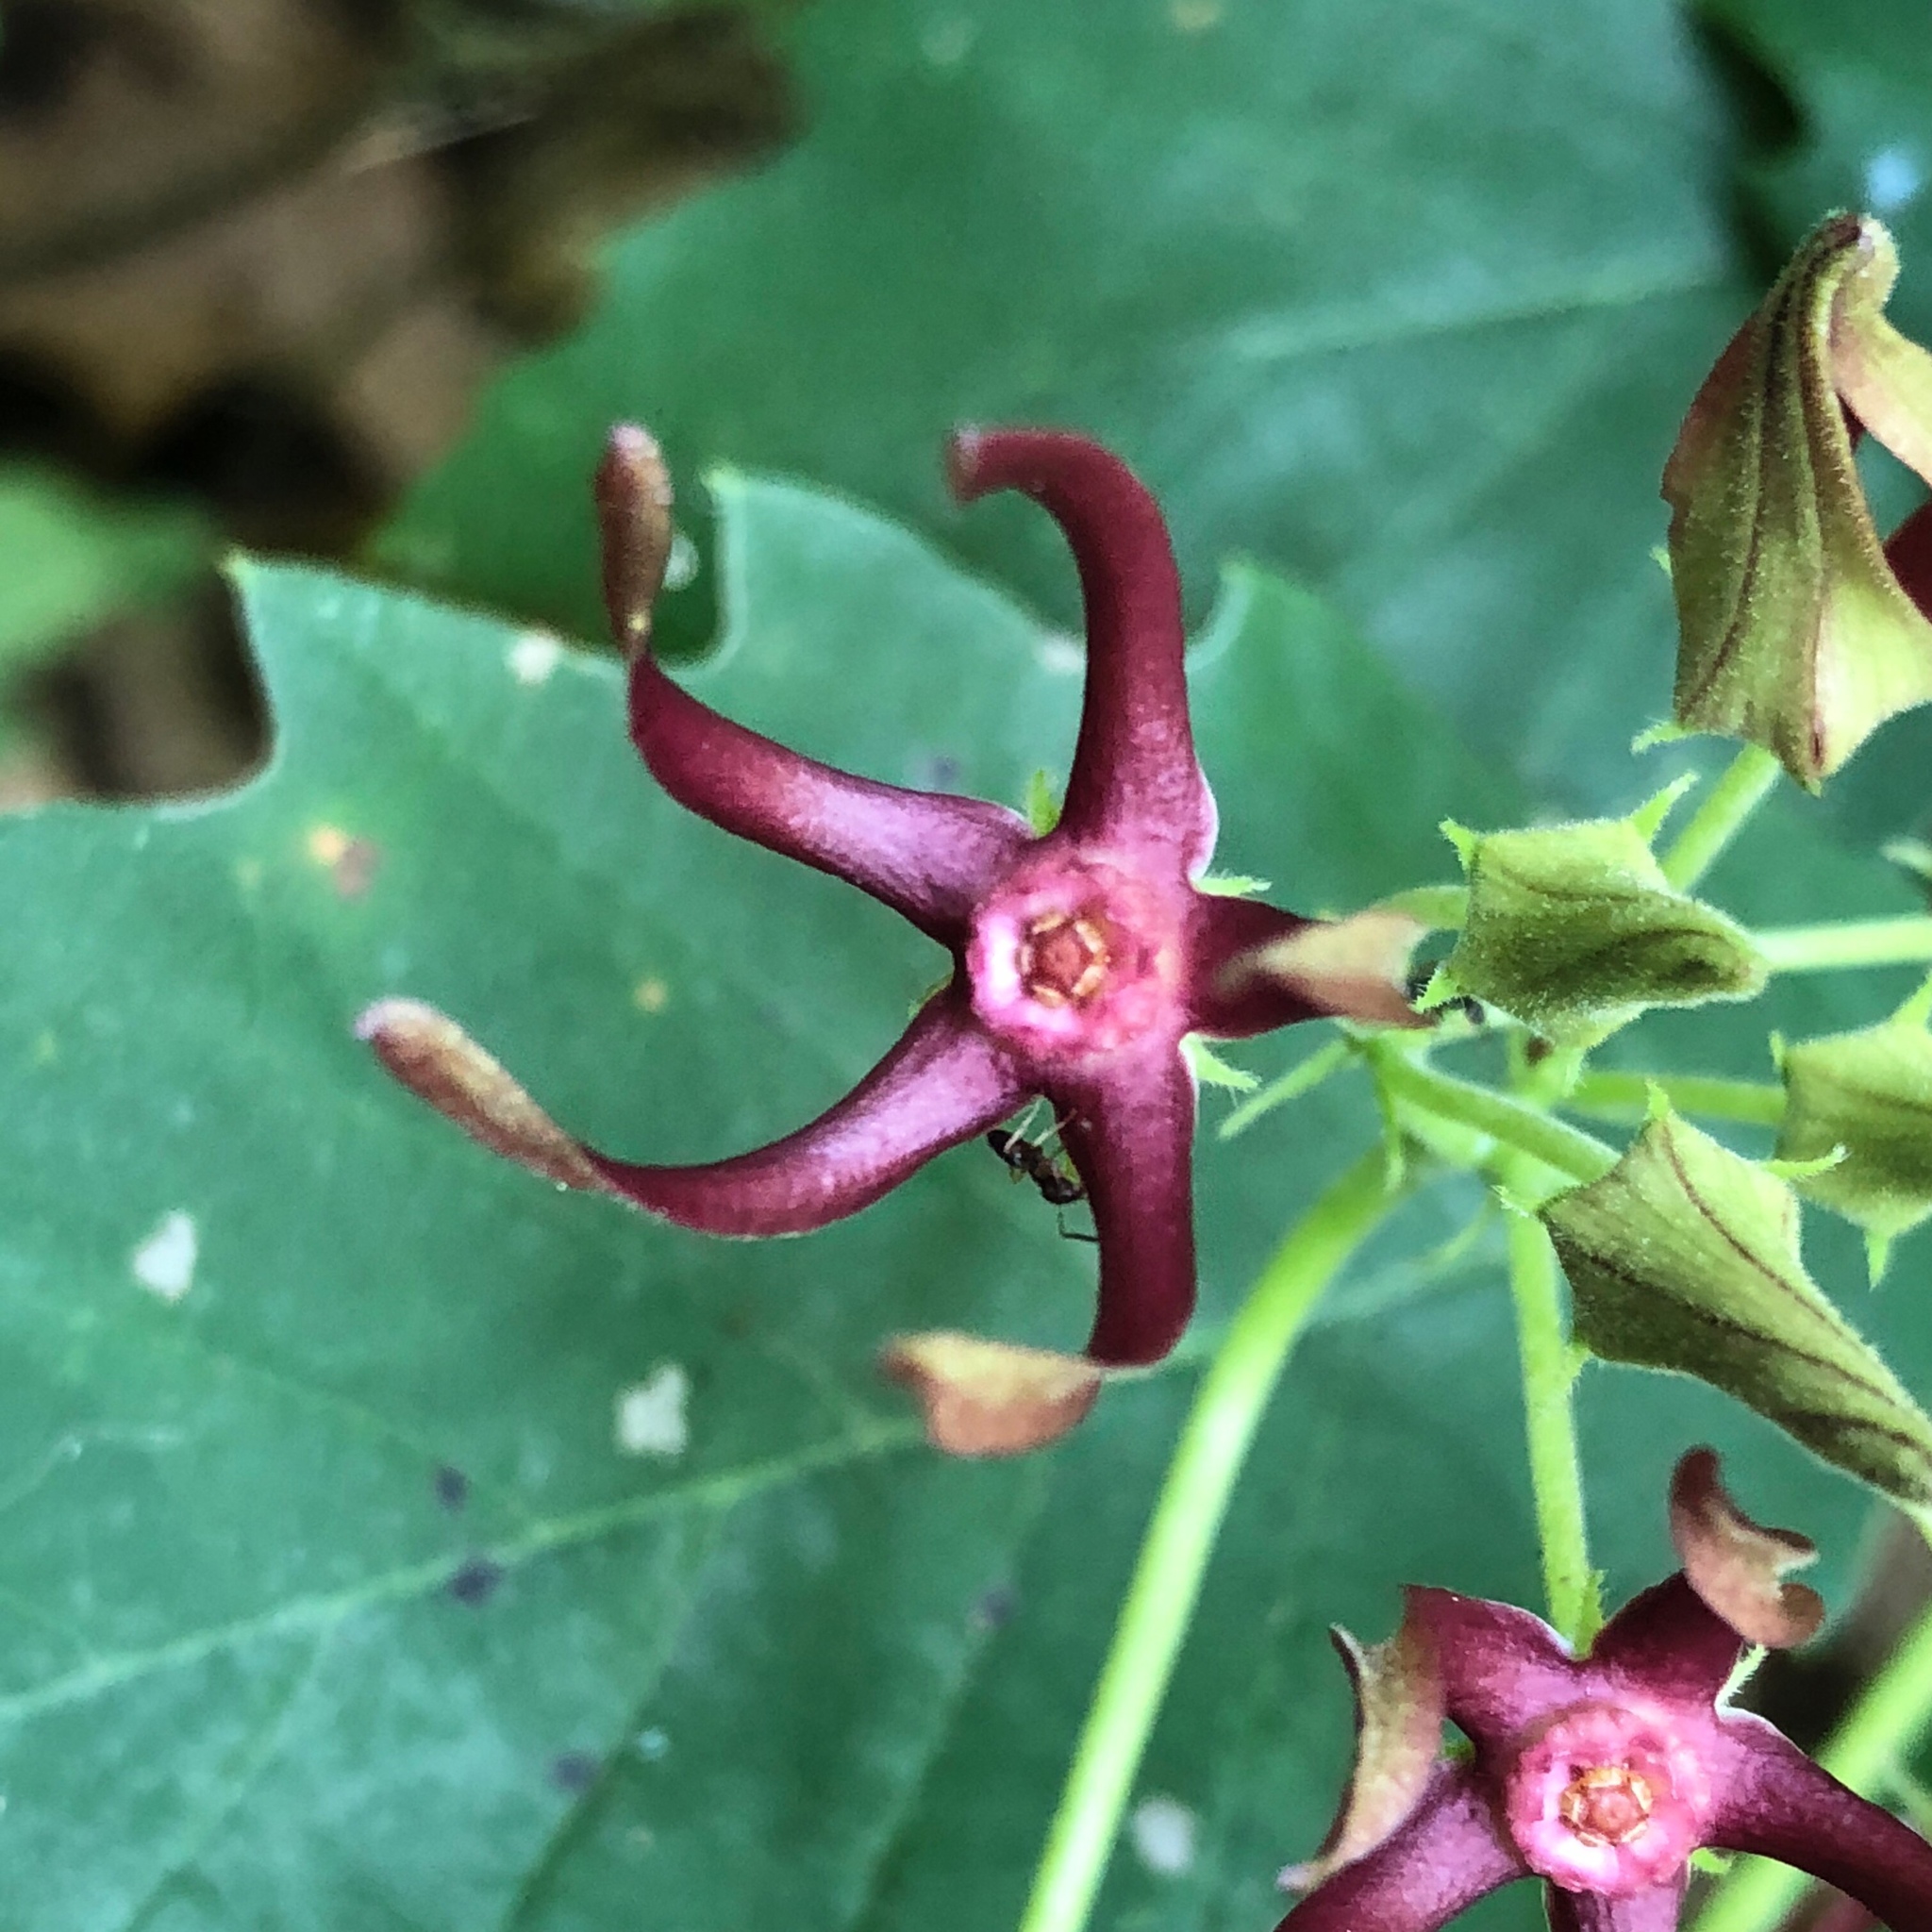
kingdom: Plantae
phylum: Tracheophyta
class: Magnoliopsida
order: Gentianales
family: Apocynaceae
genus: Matelea
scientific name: Matelea obliqua
